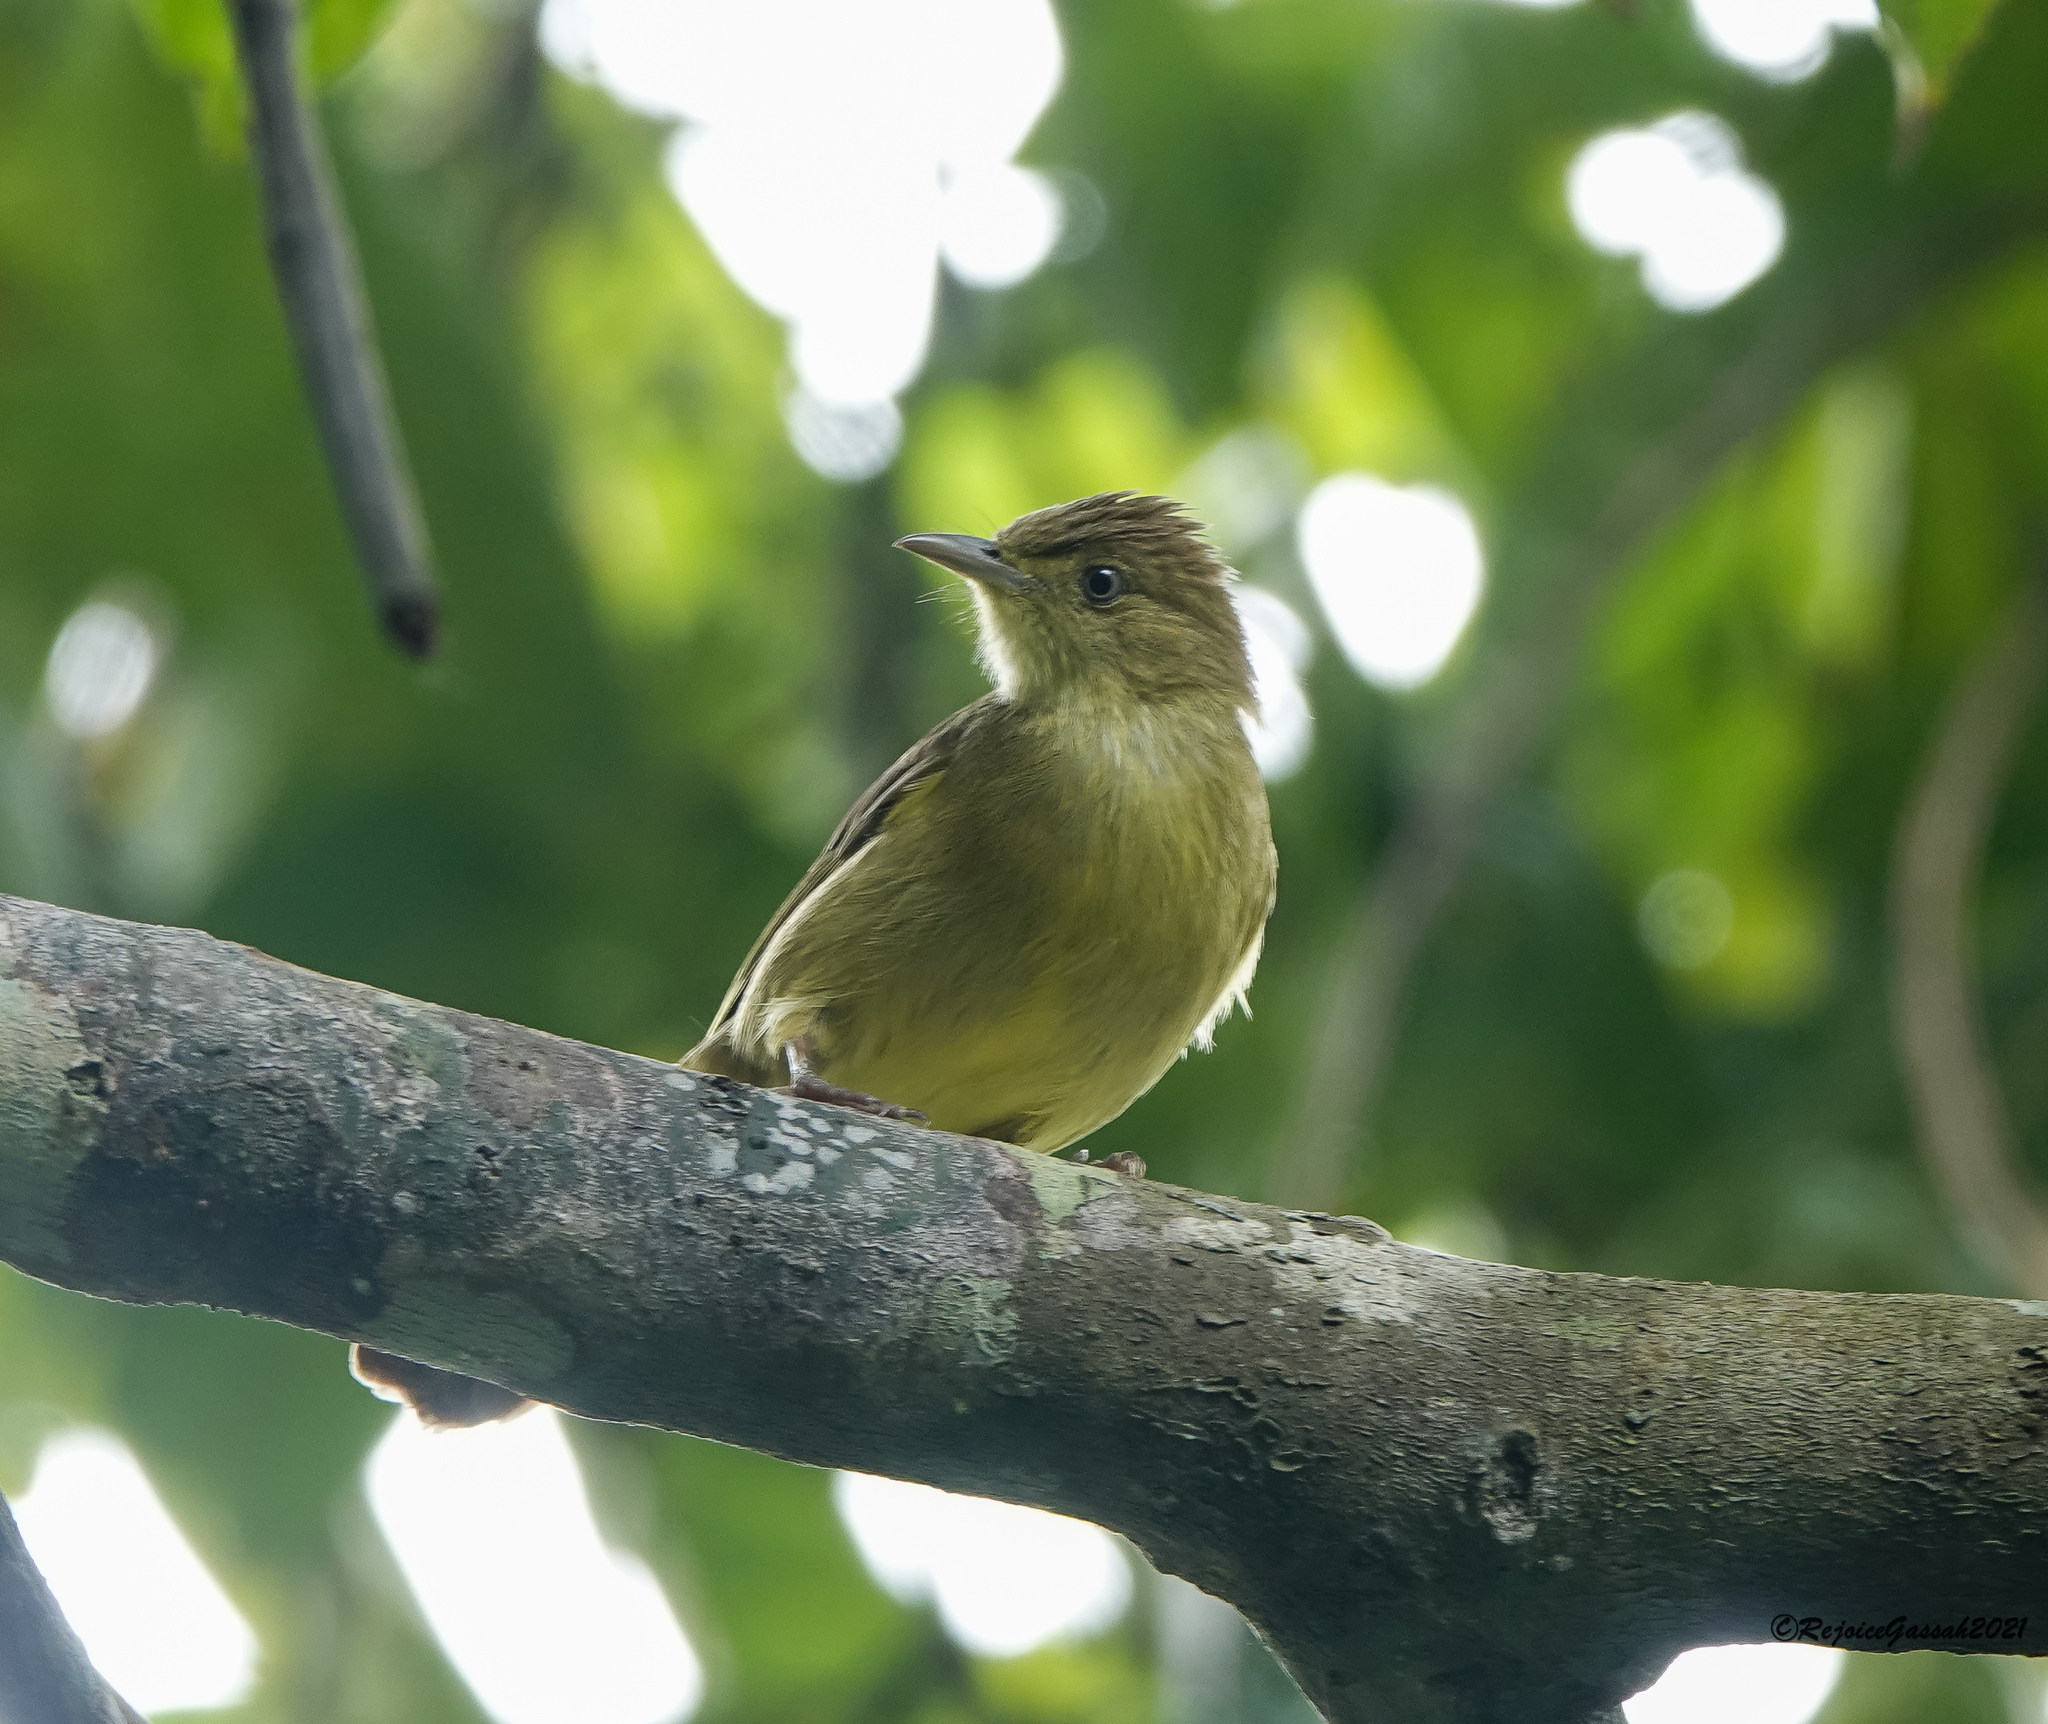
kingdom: Animalia
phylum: Chordata
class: Aves
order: Passeriformes
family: Pycnonotidae
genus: Iole
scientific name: Iole virescens
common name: Olive bulbul
